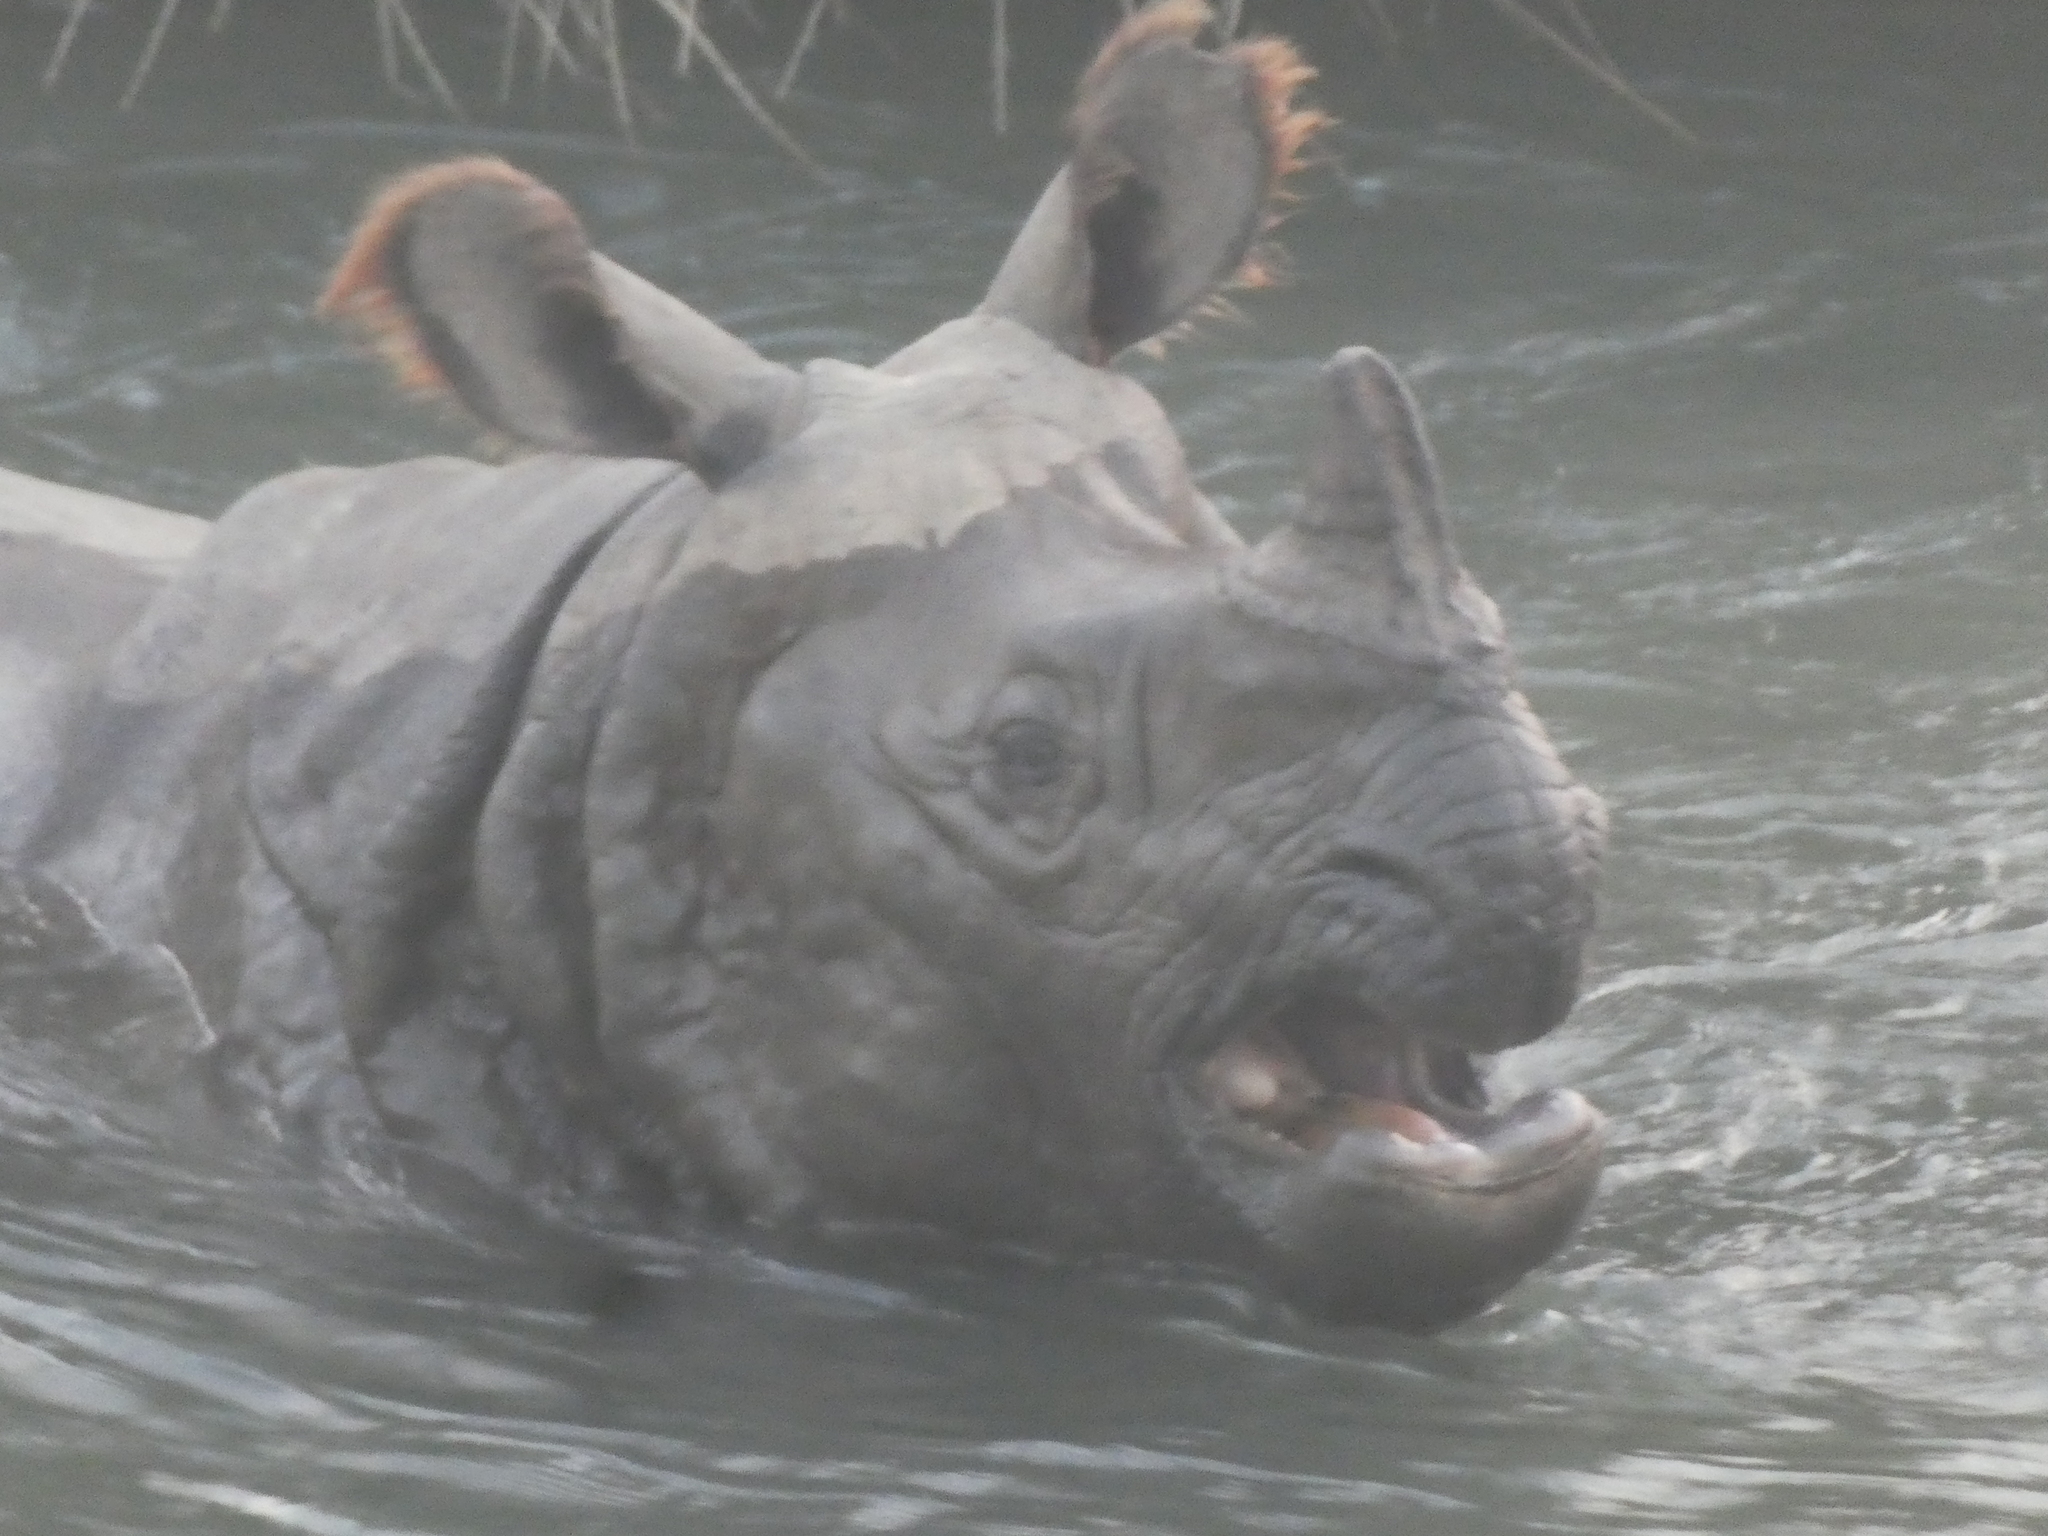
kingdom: Animalia
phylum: Chordata
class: Mammalia
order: Perissodactyla
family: Rhinocerotidae
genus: Rhinoceros
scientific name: Rhinoceros unicornis
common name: Indian rhinoceros
